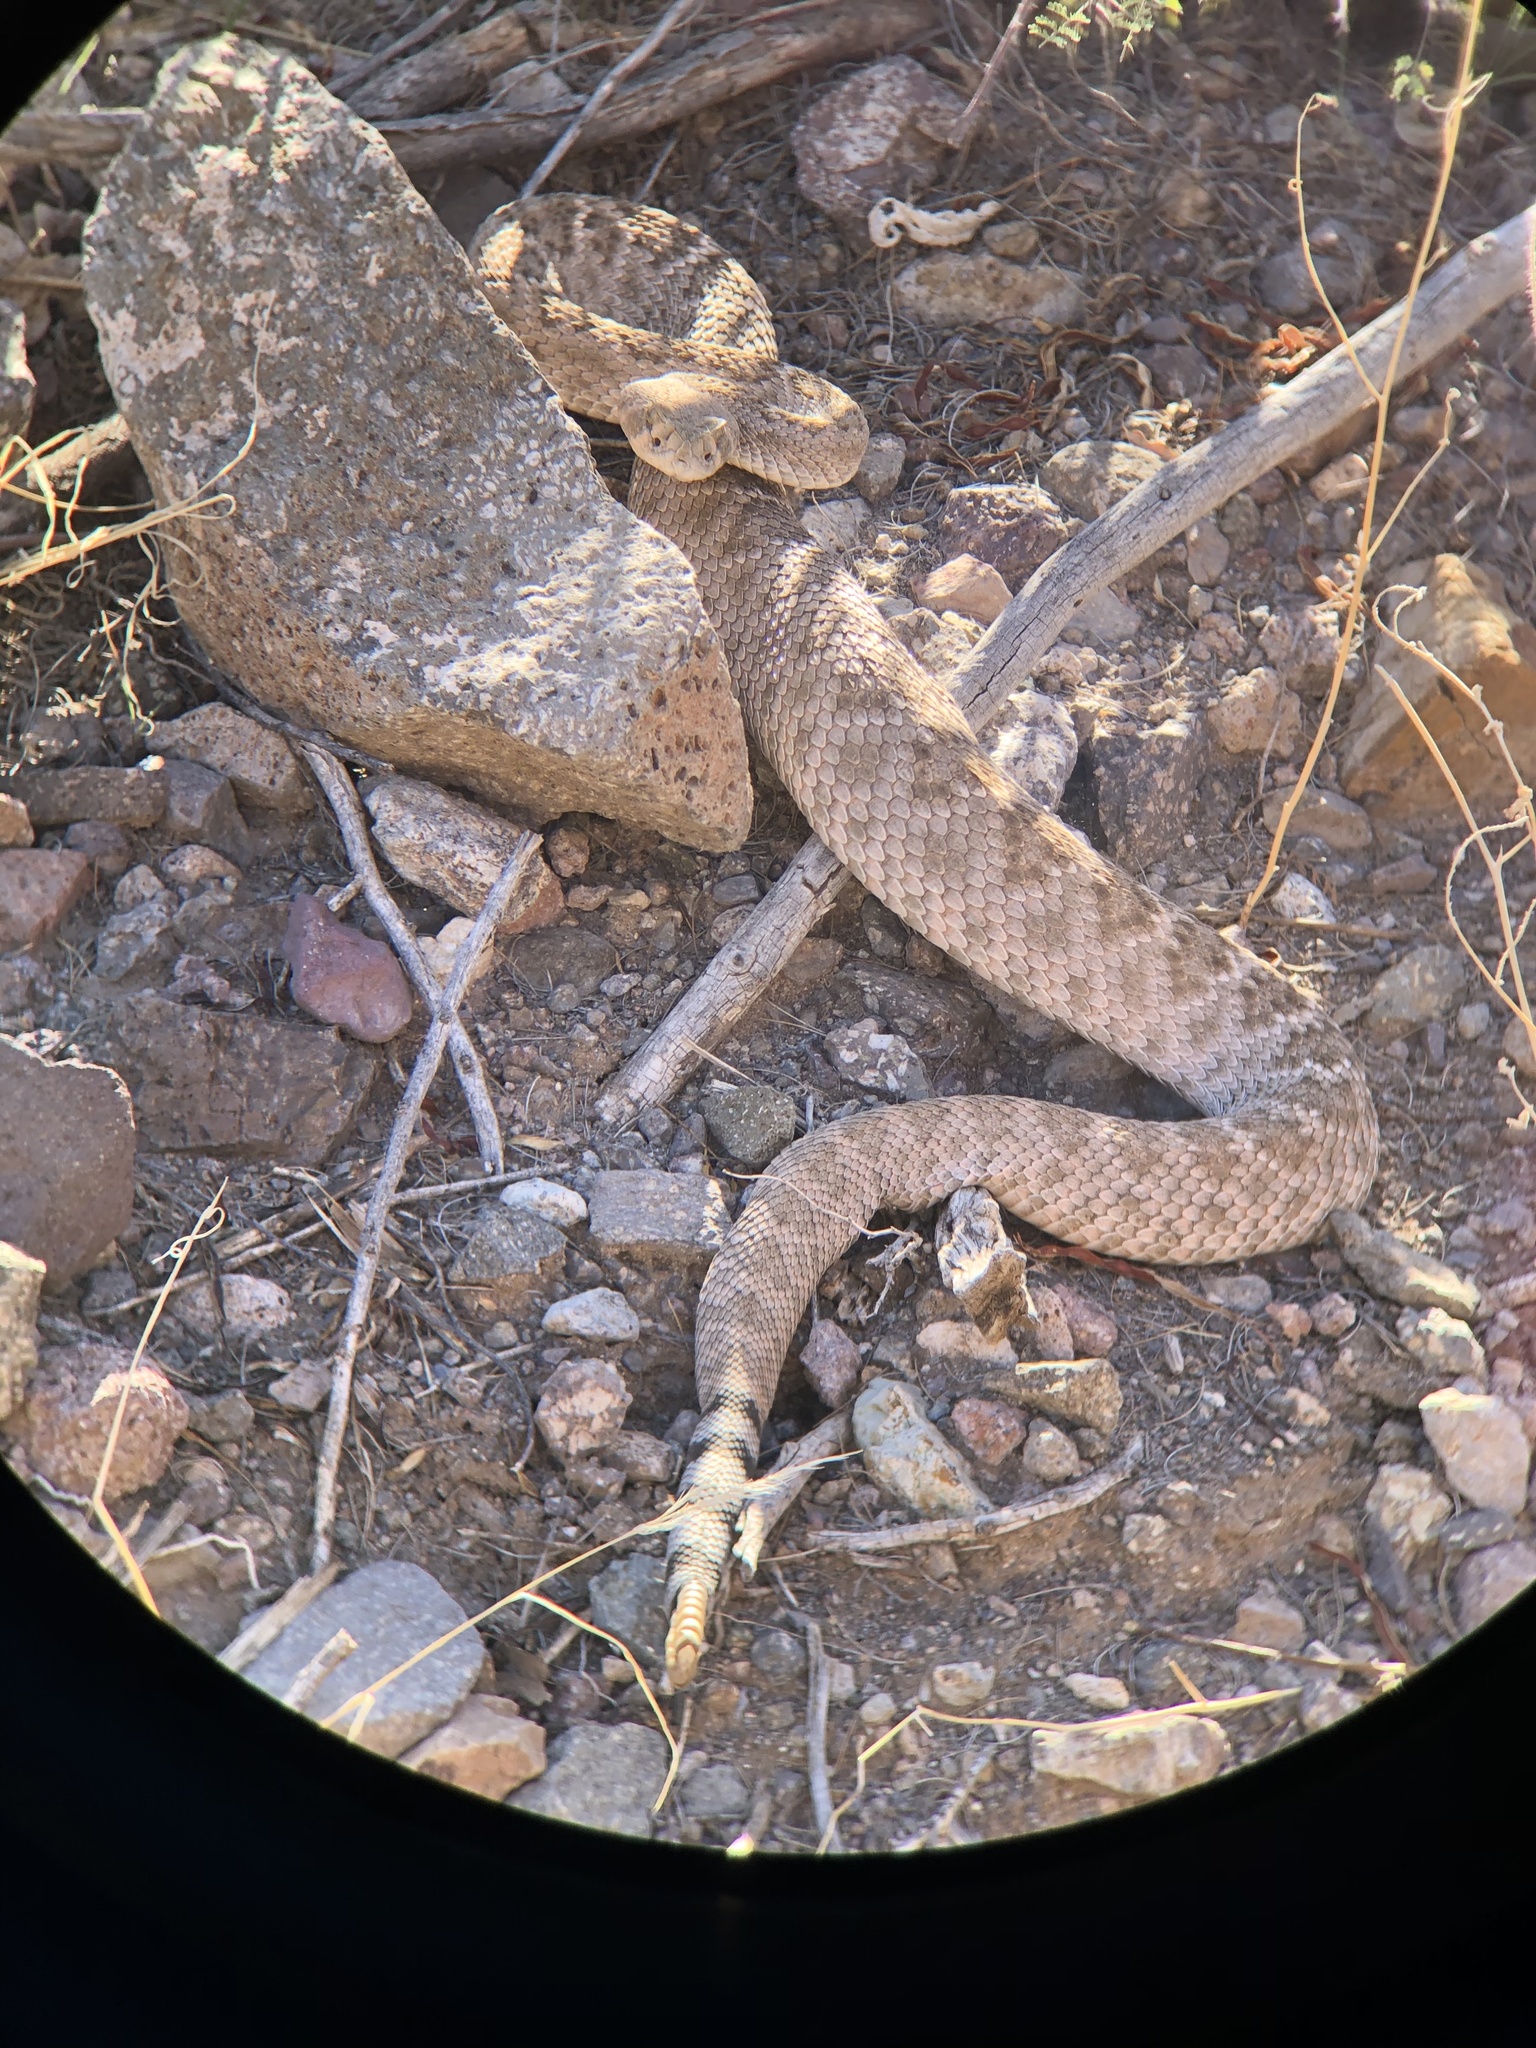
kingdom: Animalia
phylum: Chordata
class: Squamata
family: Viperidae
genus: Crotalus
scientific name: Crotalus atrox
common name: Western diamond-backed rattlesnake
